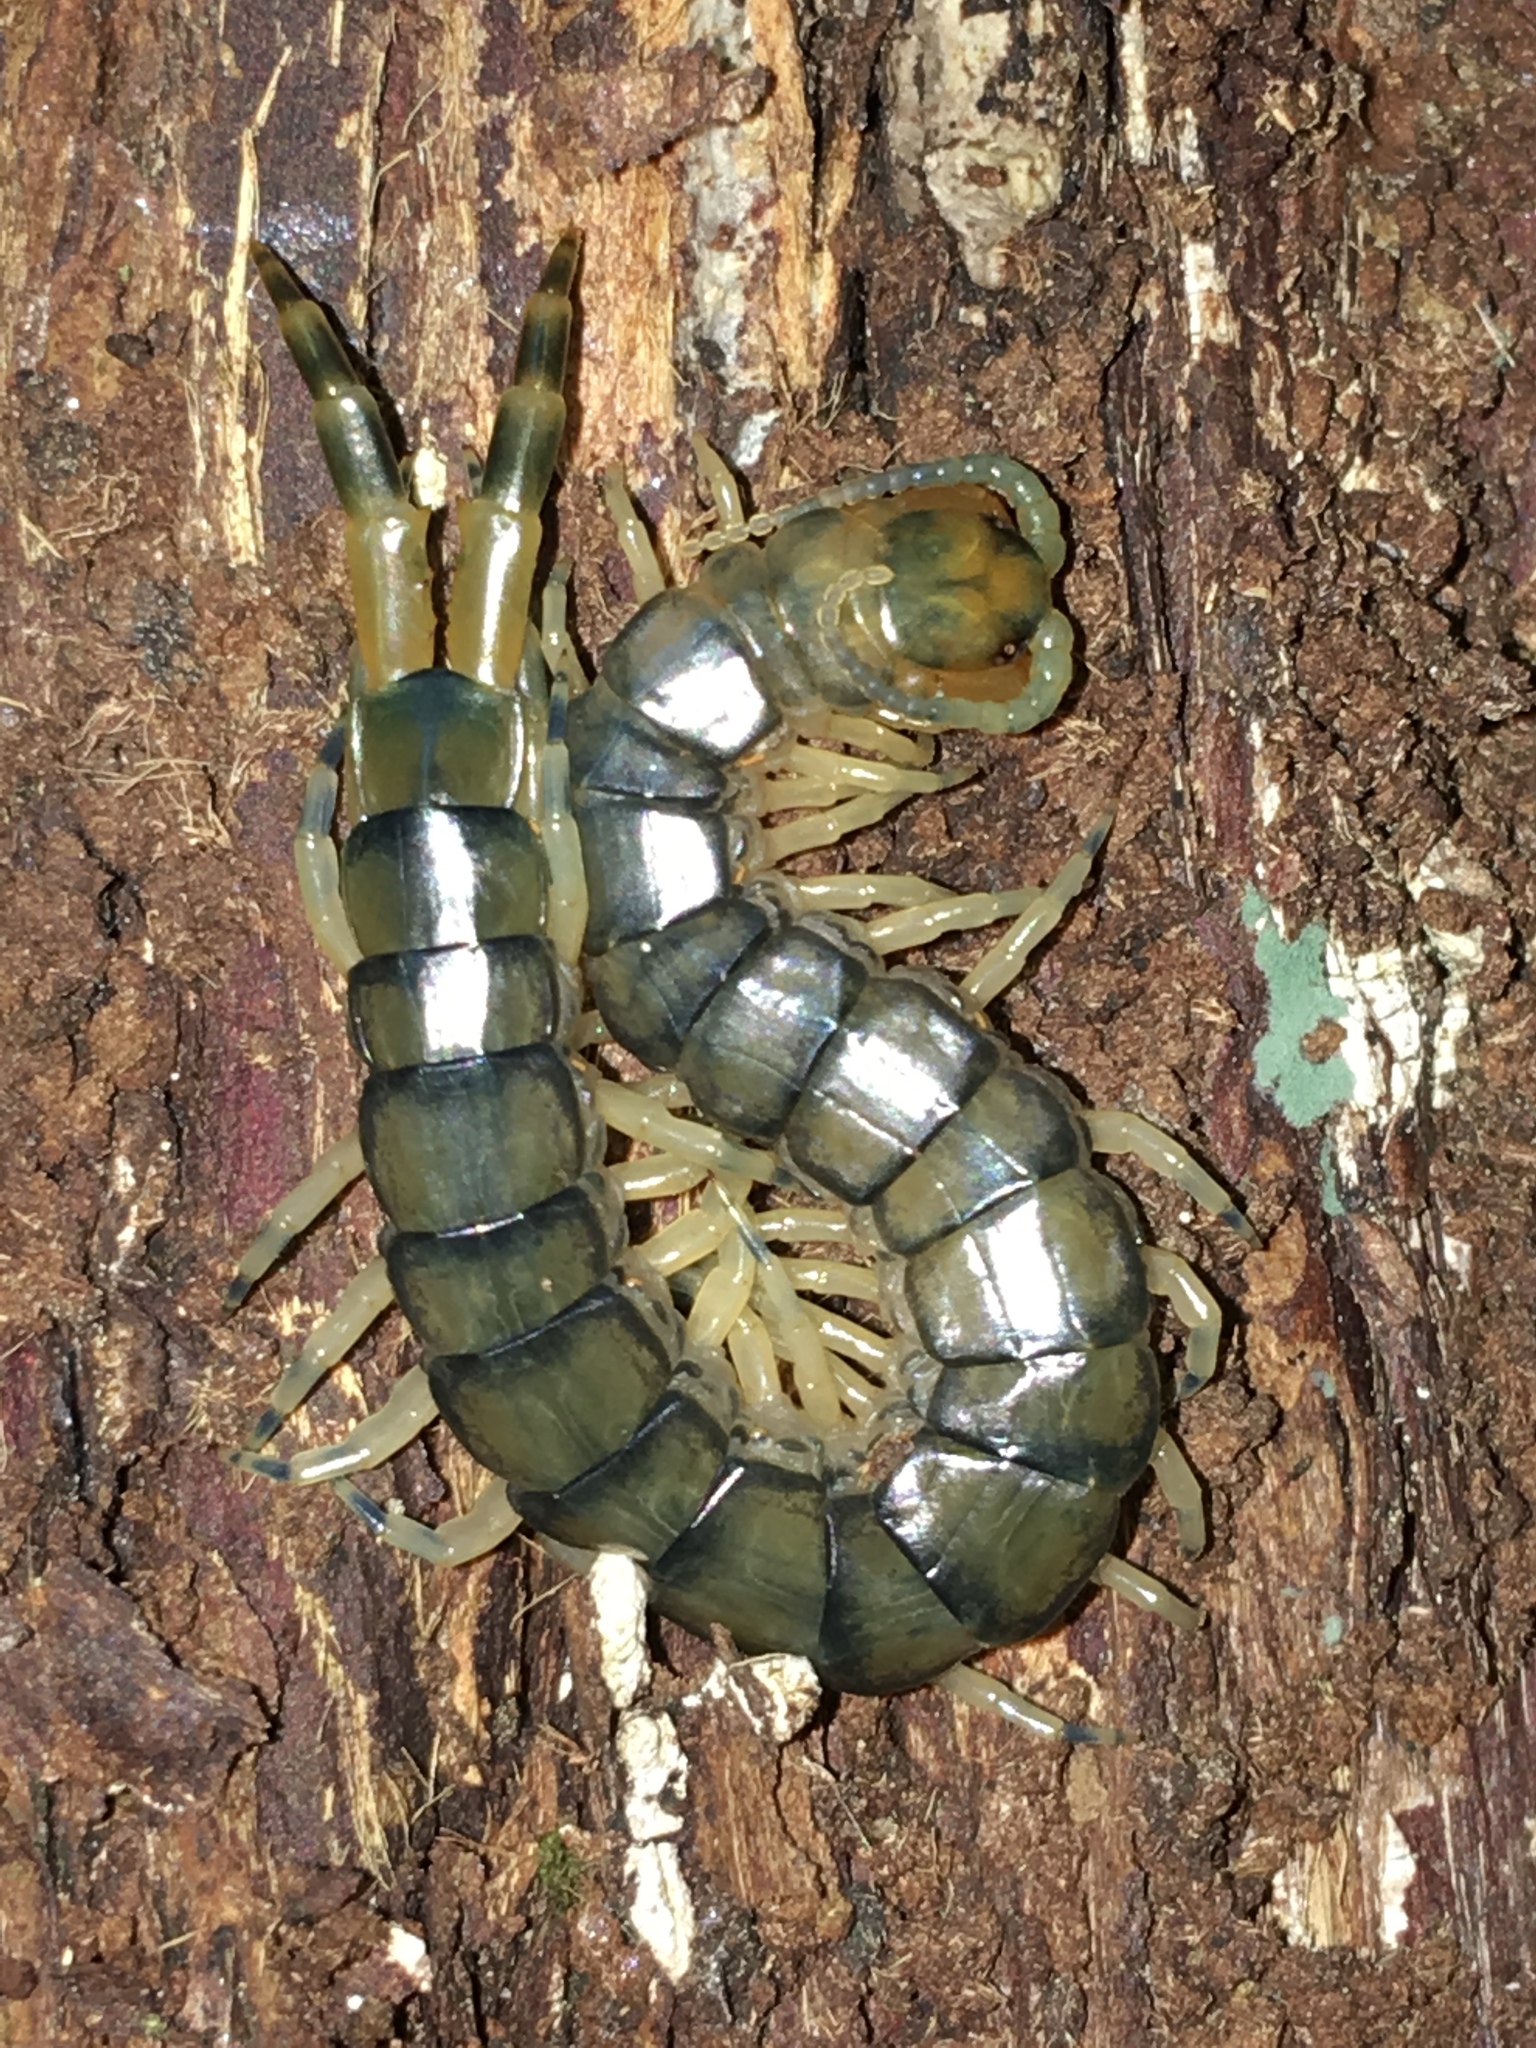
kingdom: Animalia
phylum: Arthropoda
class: Chilopoda
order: Scolopendromorpha
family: Scolopendridae
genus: Hemiscolopendra
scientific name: Hemiscolopendra marginata
